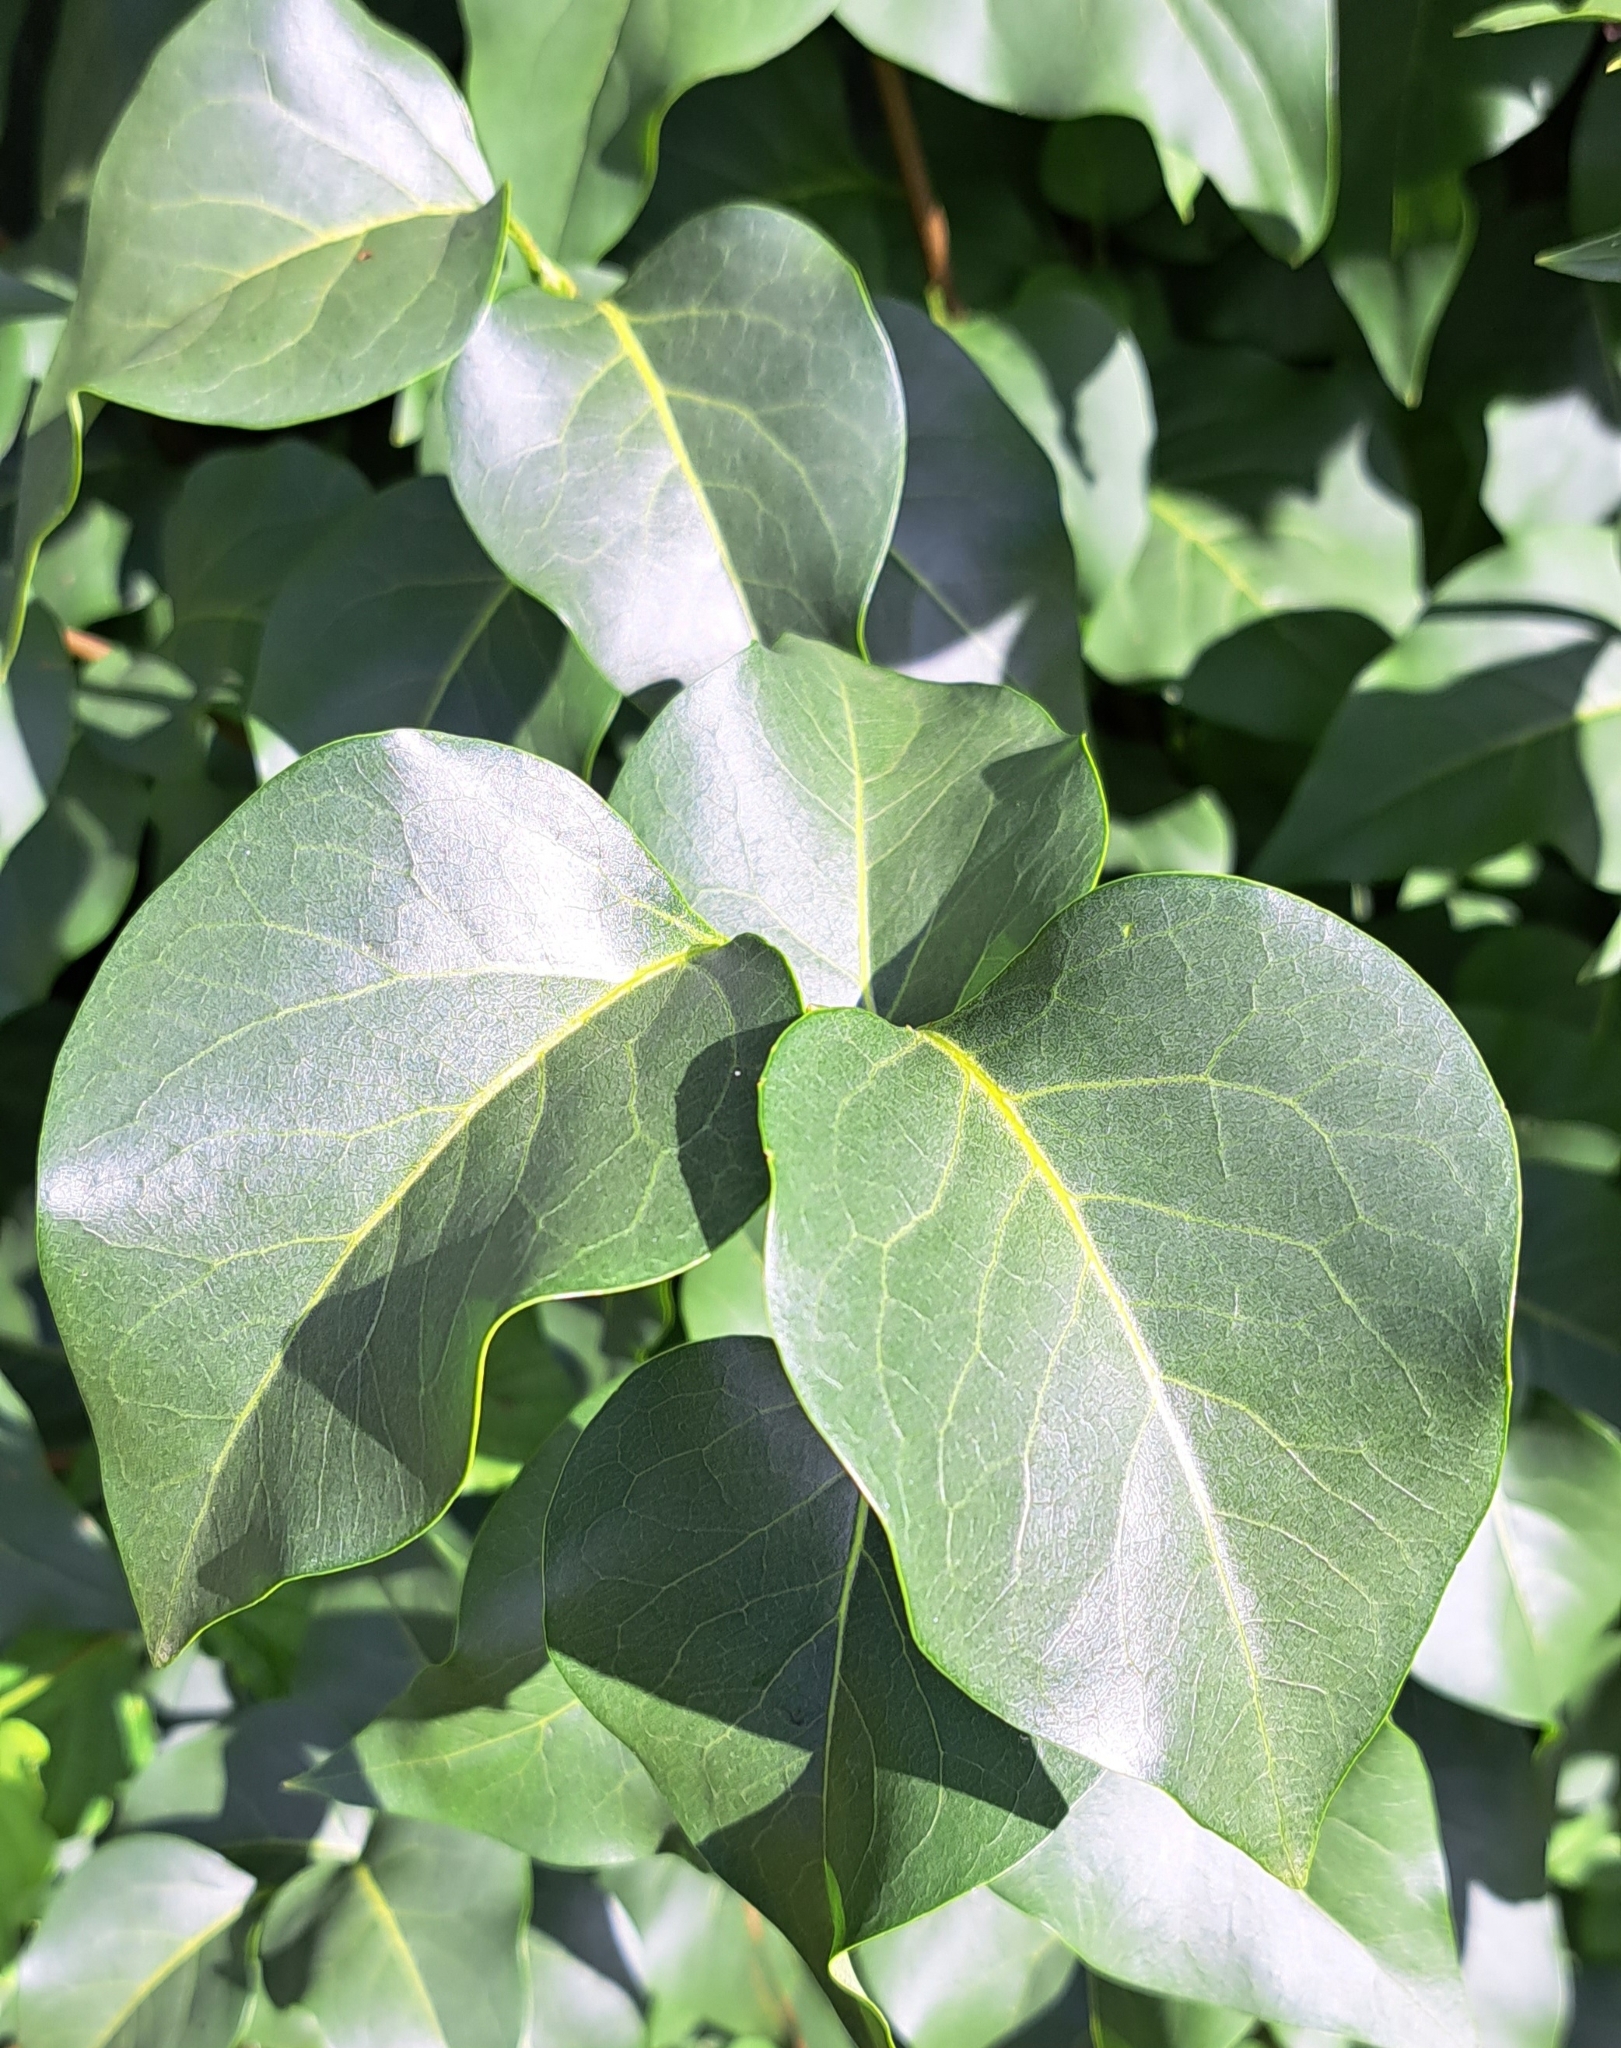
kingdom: Plantae
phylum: Tracheophyta
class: Magnoliopsida
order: Lamiales
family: Oleaceae
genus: Syringa
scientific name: Syringa vulgaris
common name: Common lilac
